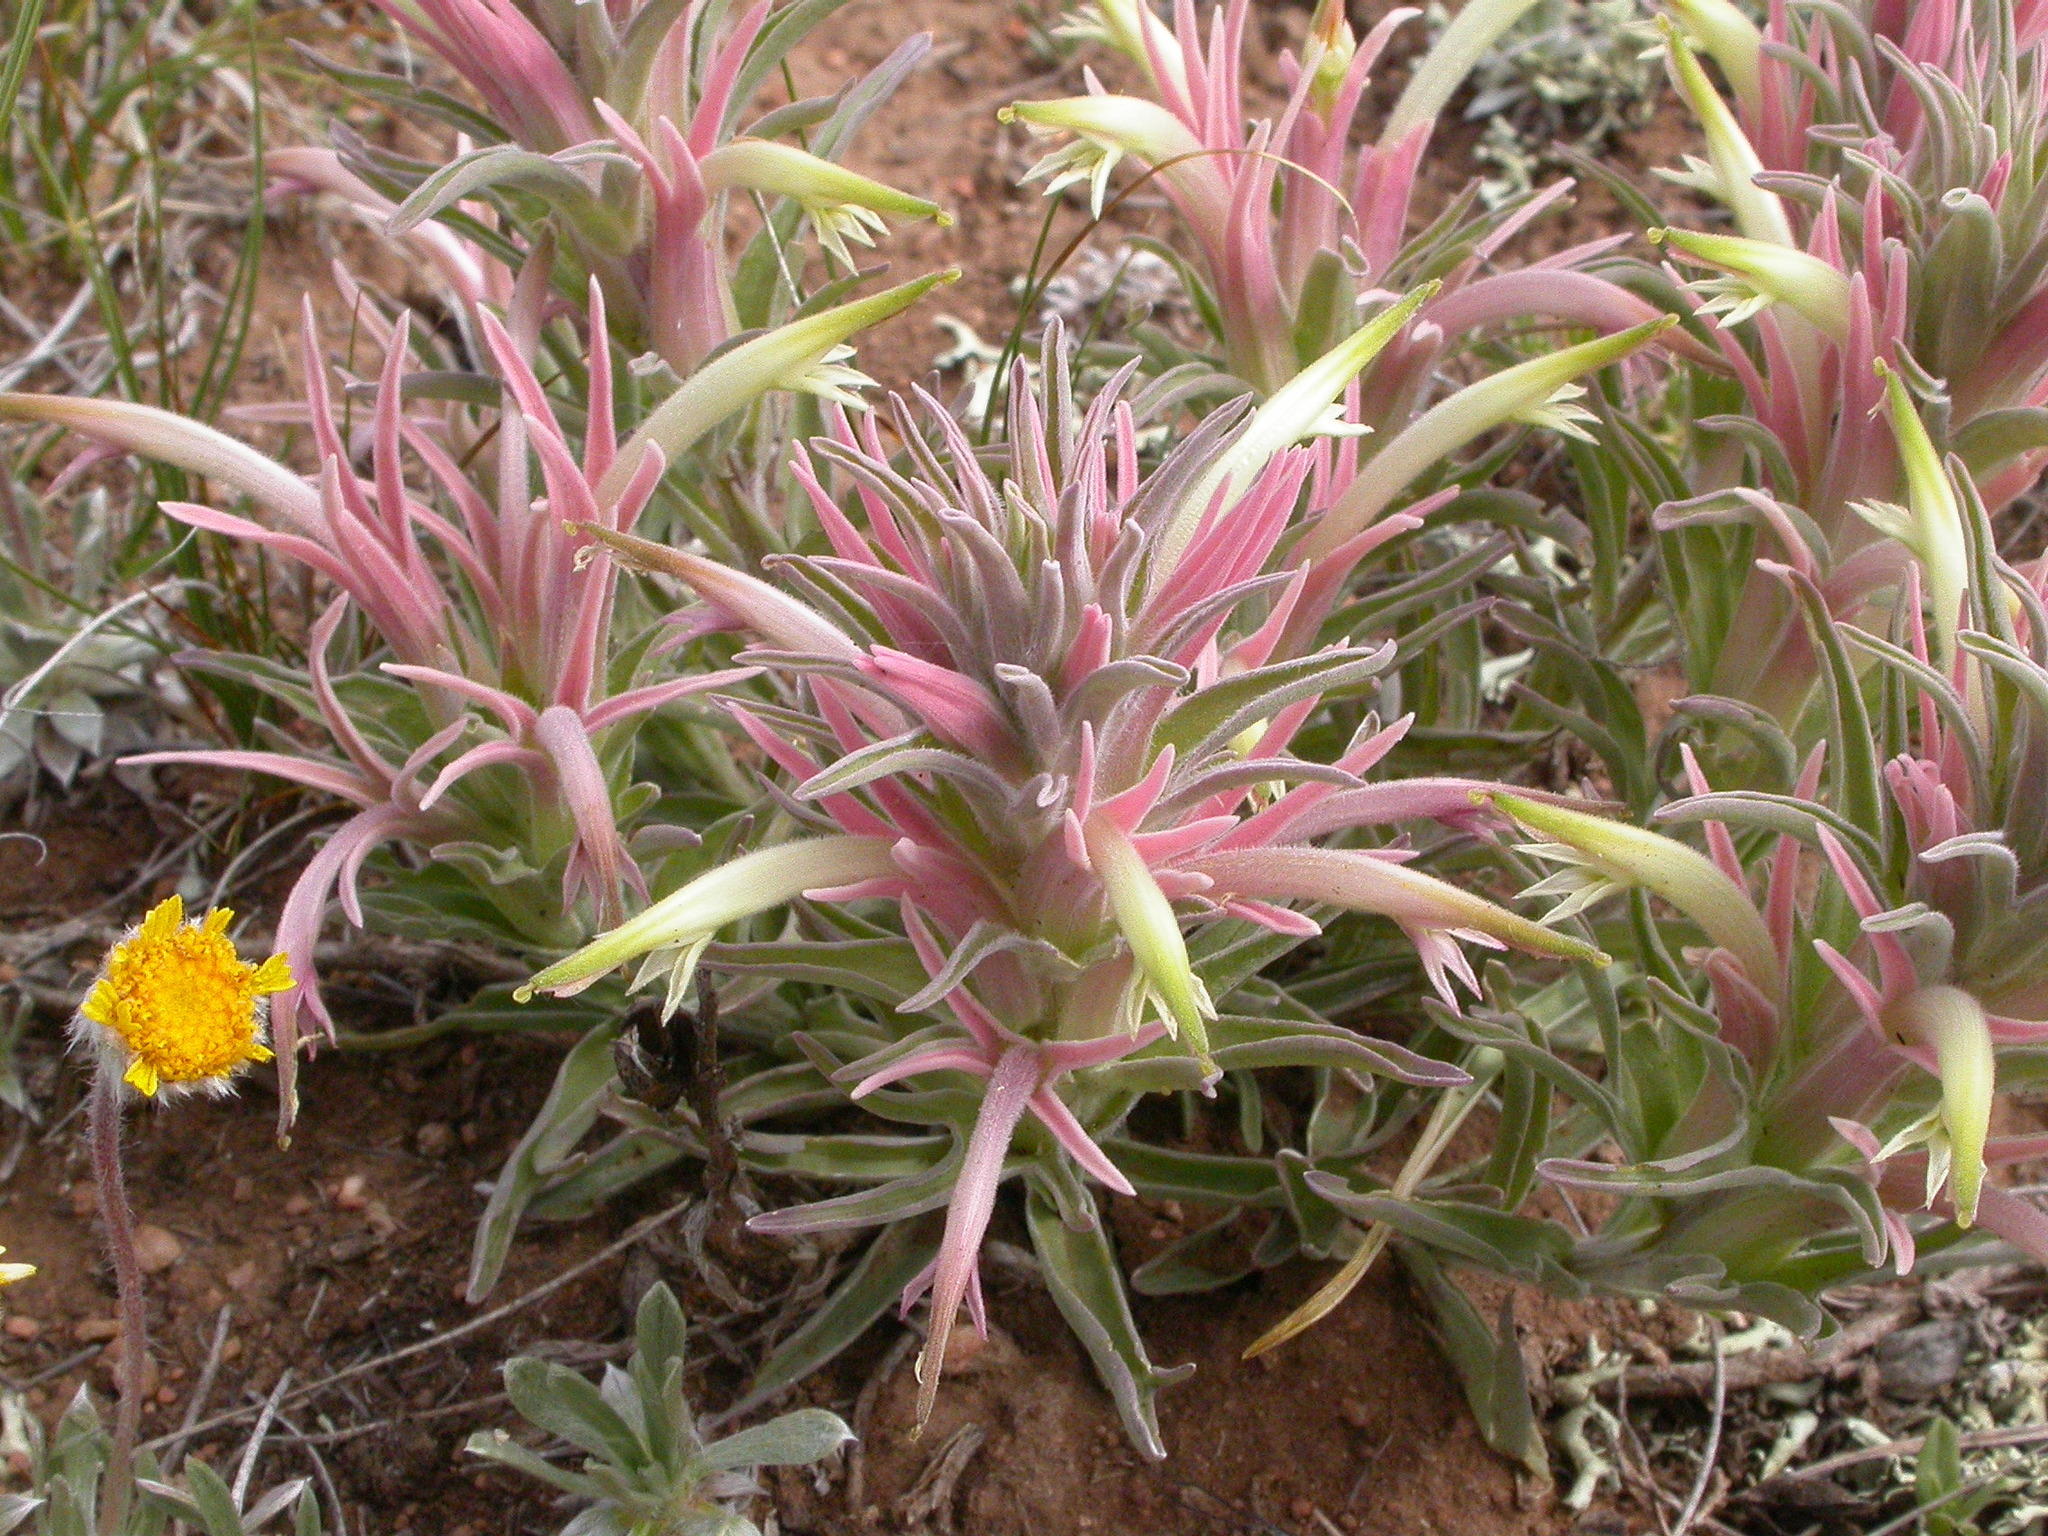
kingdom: Plantae
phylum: Tracheophyta
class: Magnoliopsida
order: Lamiales
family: Orobanchaceae
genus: Castilleja
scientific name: Castilleja sessiliflora
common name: Downy paintbrush
